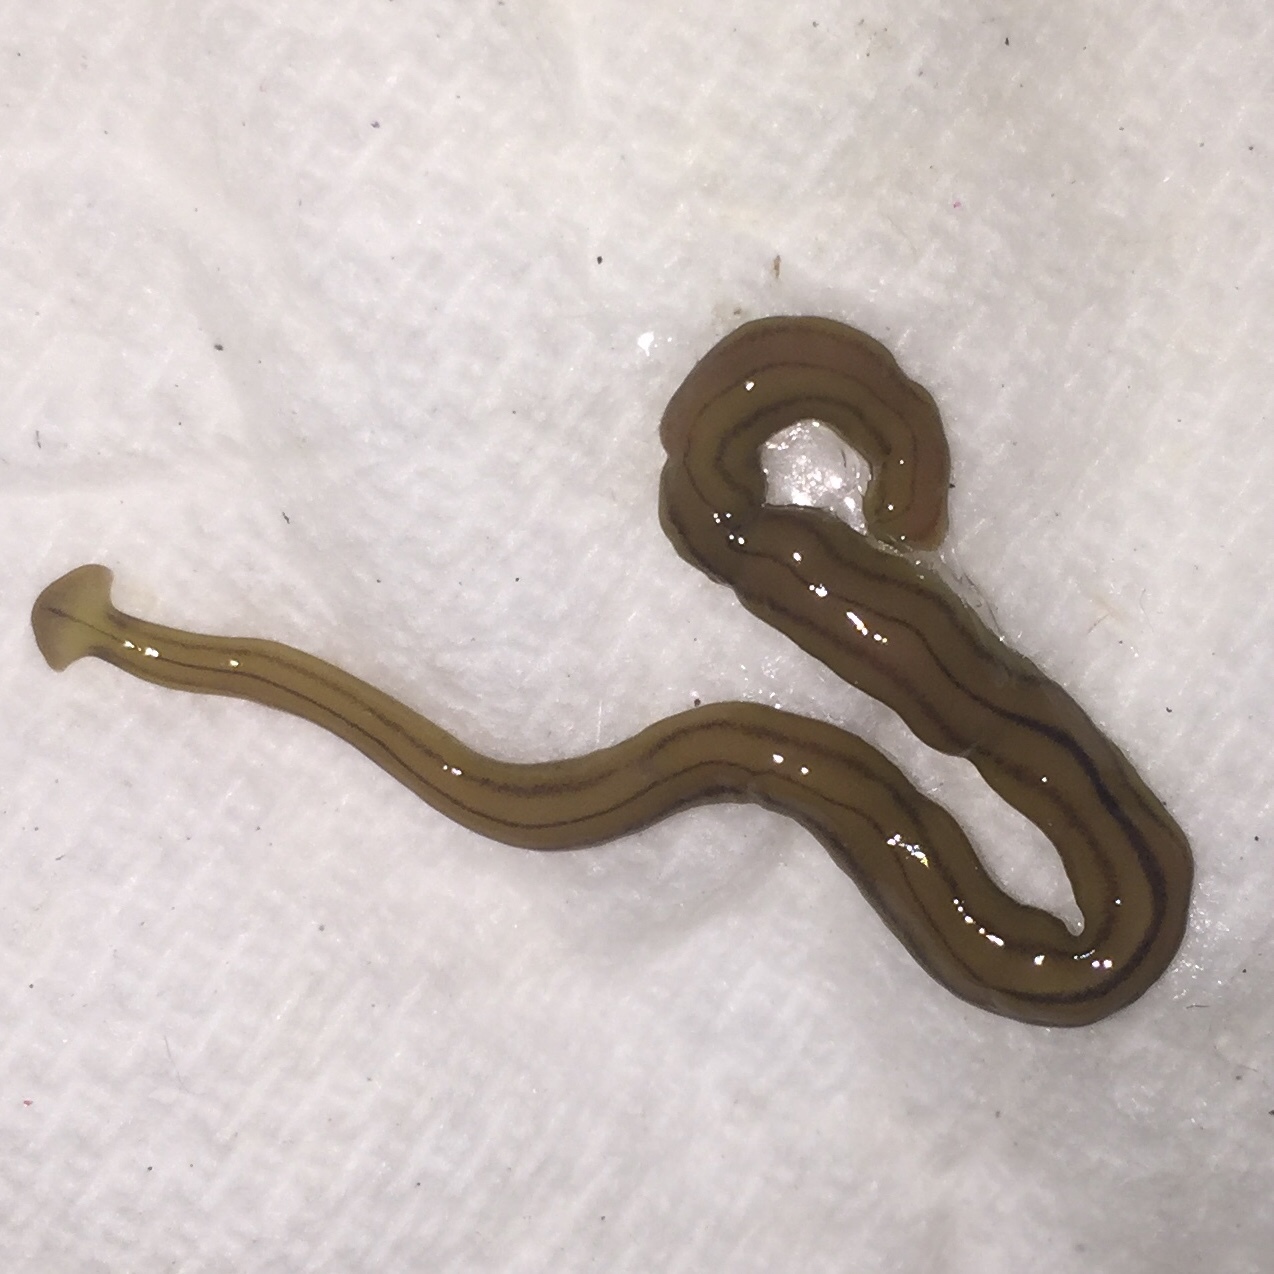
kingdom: Animalia
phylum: Platyhelminthes
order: Tricladida
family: Geoplanidae
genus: Diversibipalium
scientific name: Diversibipalium multilineatum
